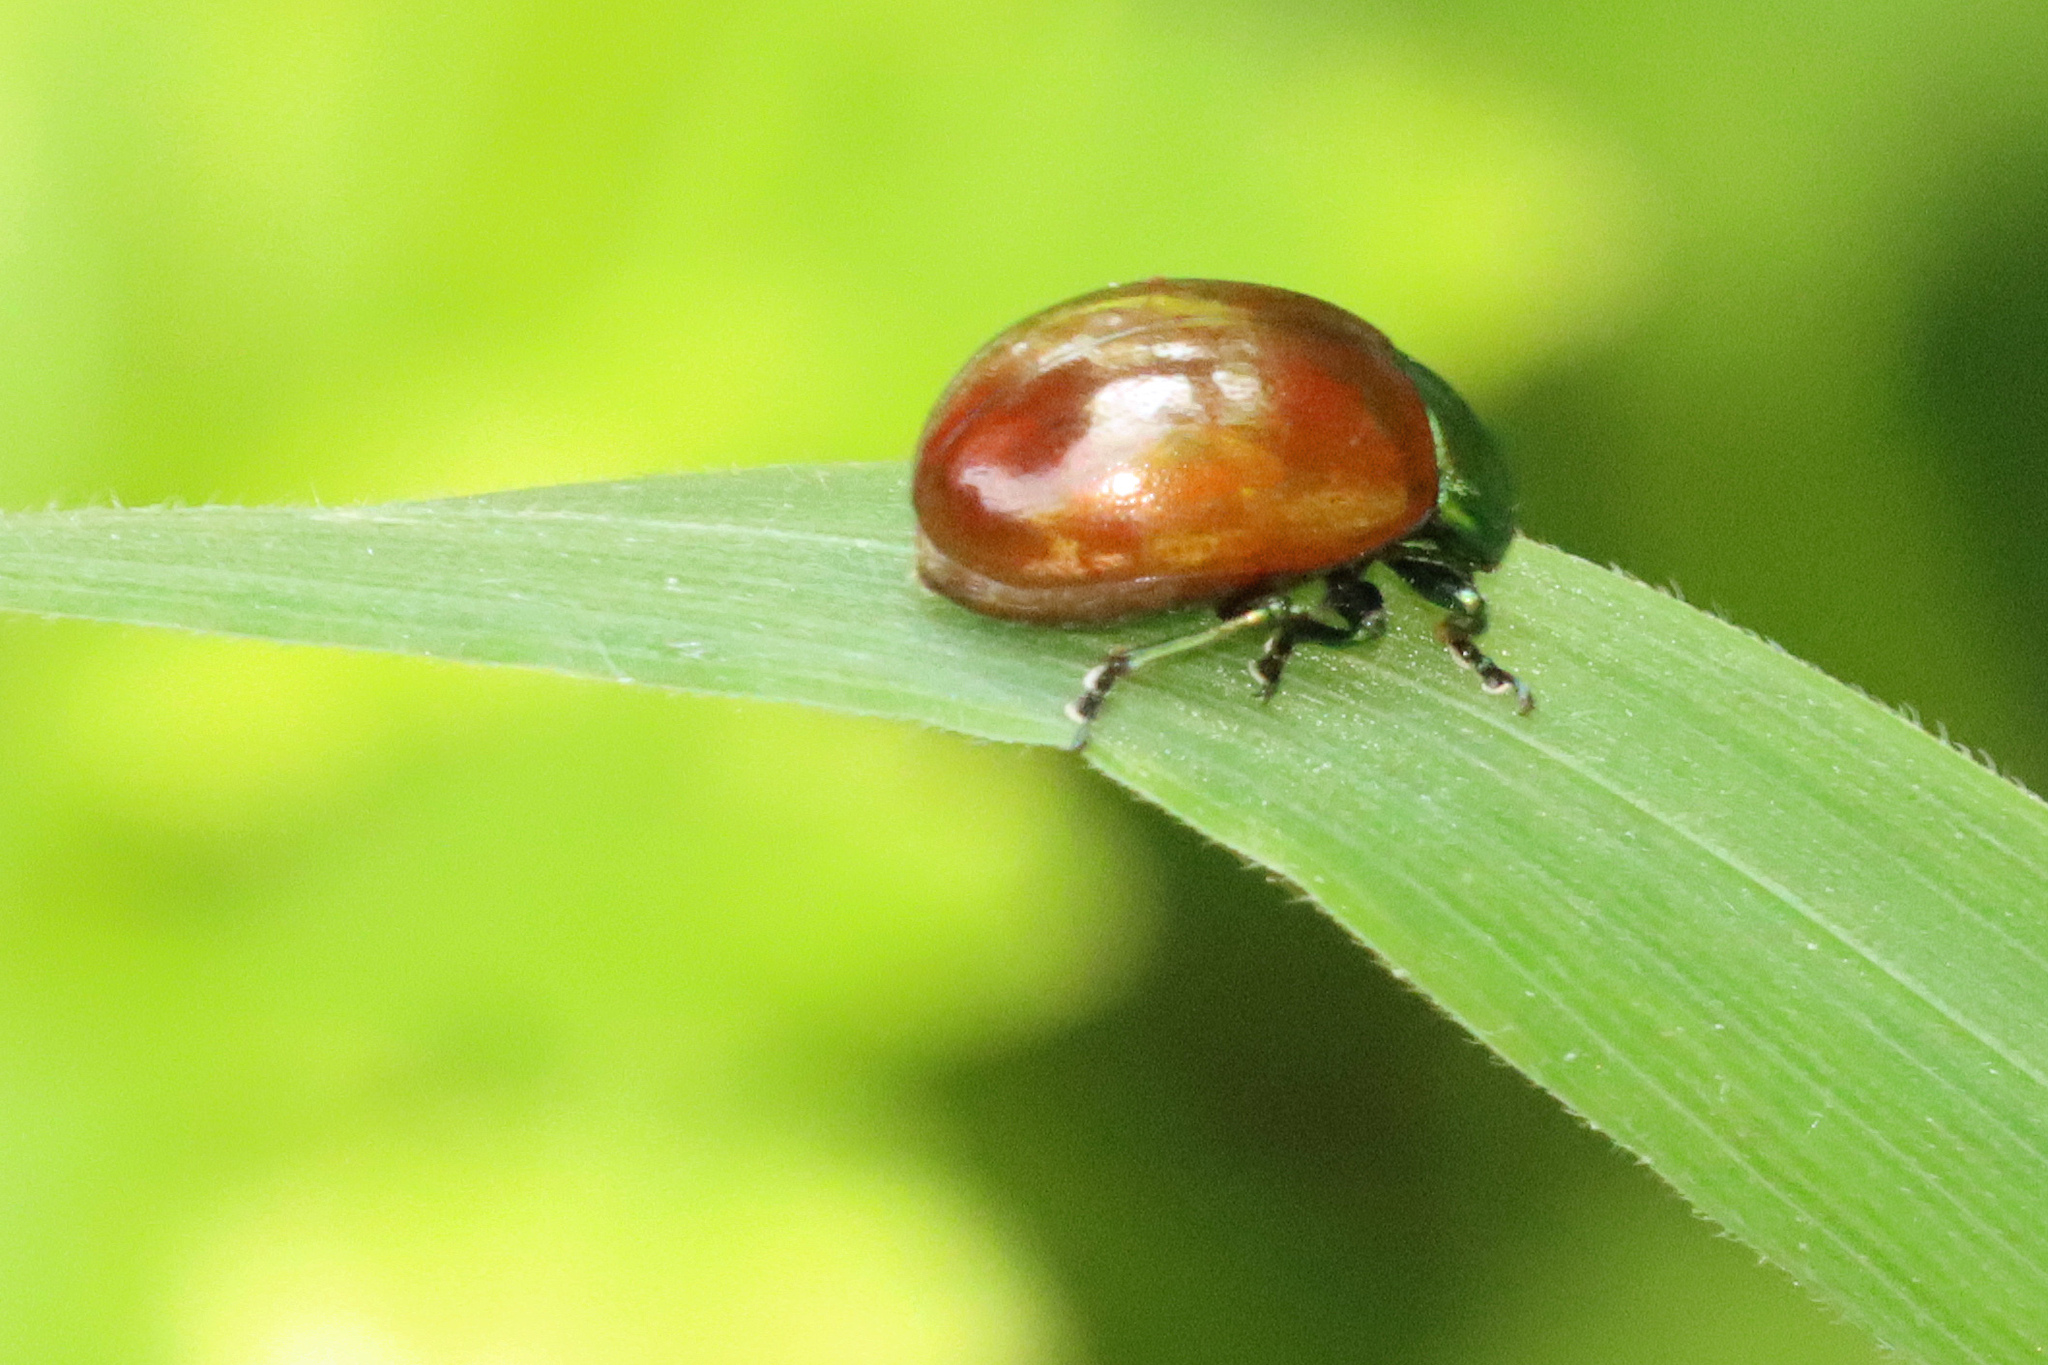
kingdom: Animalia
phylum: Arthropoda
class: Insecta
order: Coleoptera
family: Chrysomelidae
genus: Chrysomela
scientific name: Chrysomela polita
